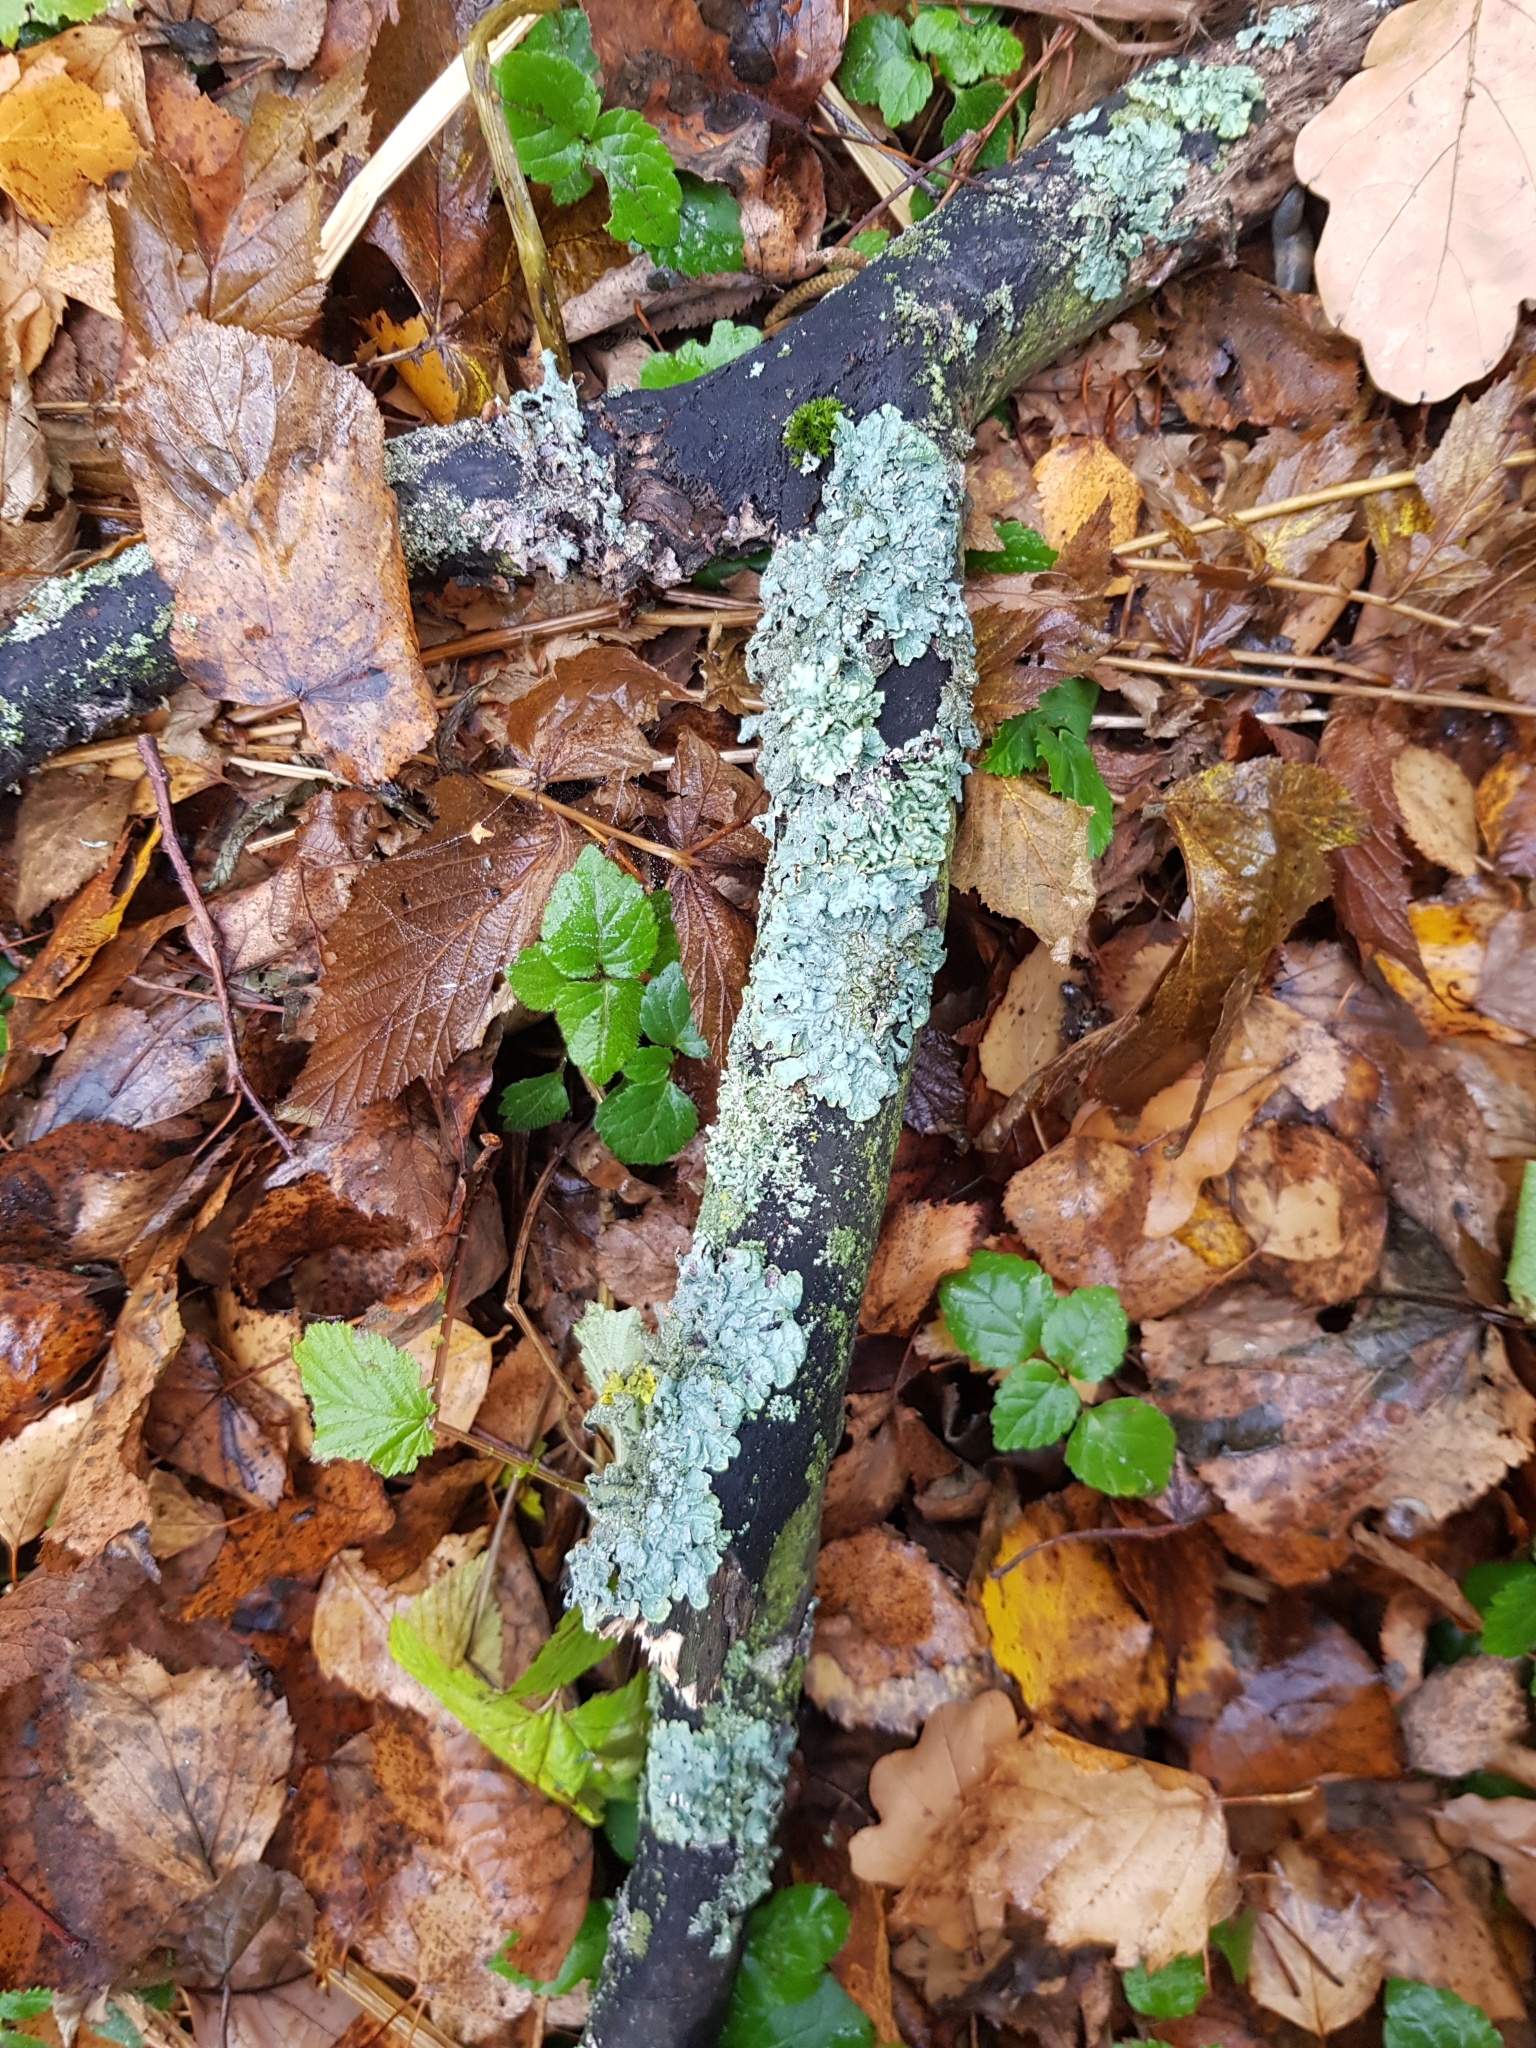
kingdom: Fungi
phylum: Ascomycota
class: Lecanoromycetes
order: Lecanorales
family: Parmeliaceae
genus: Parmelia
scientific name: Parmelia sulcata
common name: Netted shield lichen
